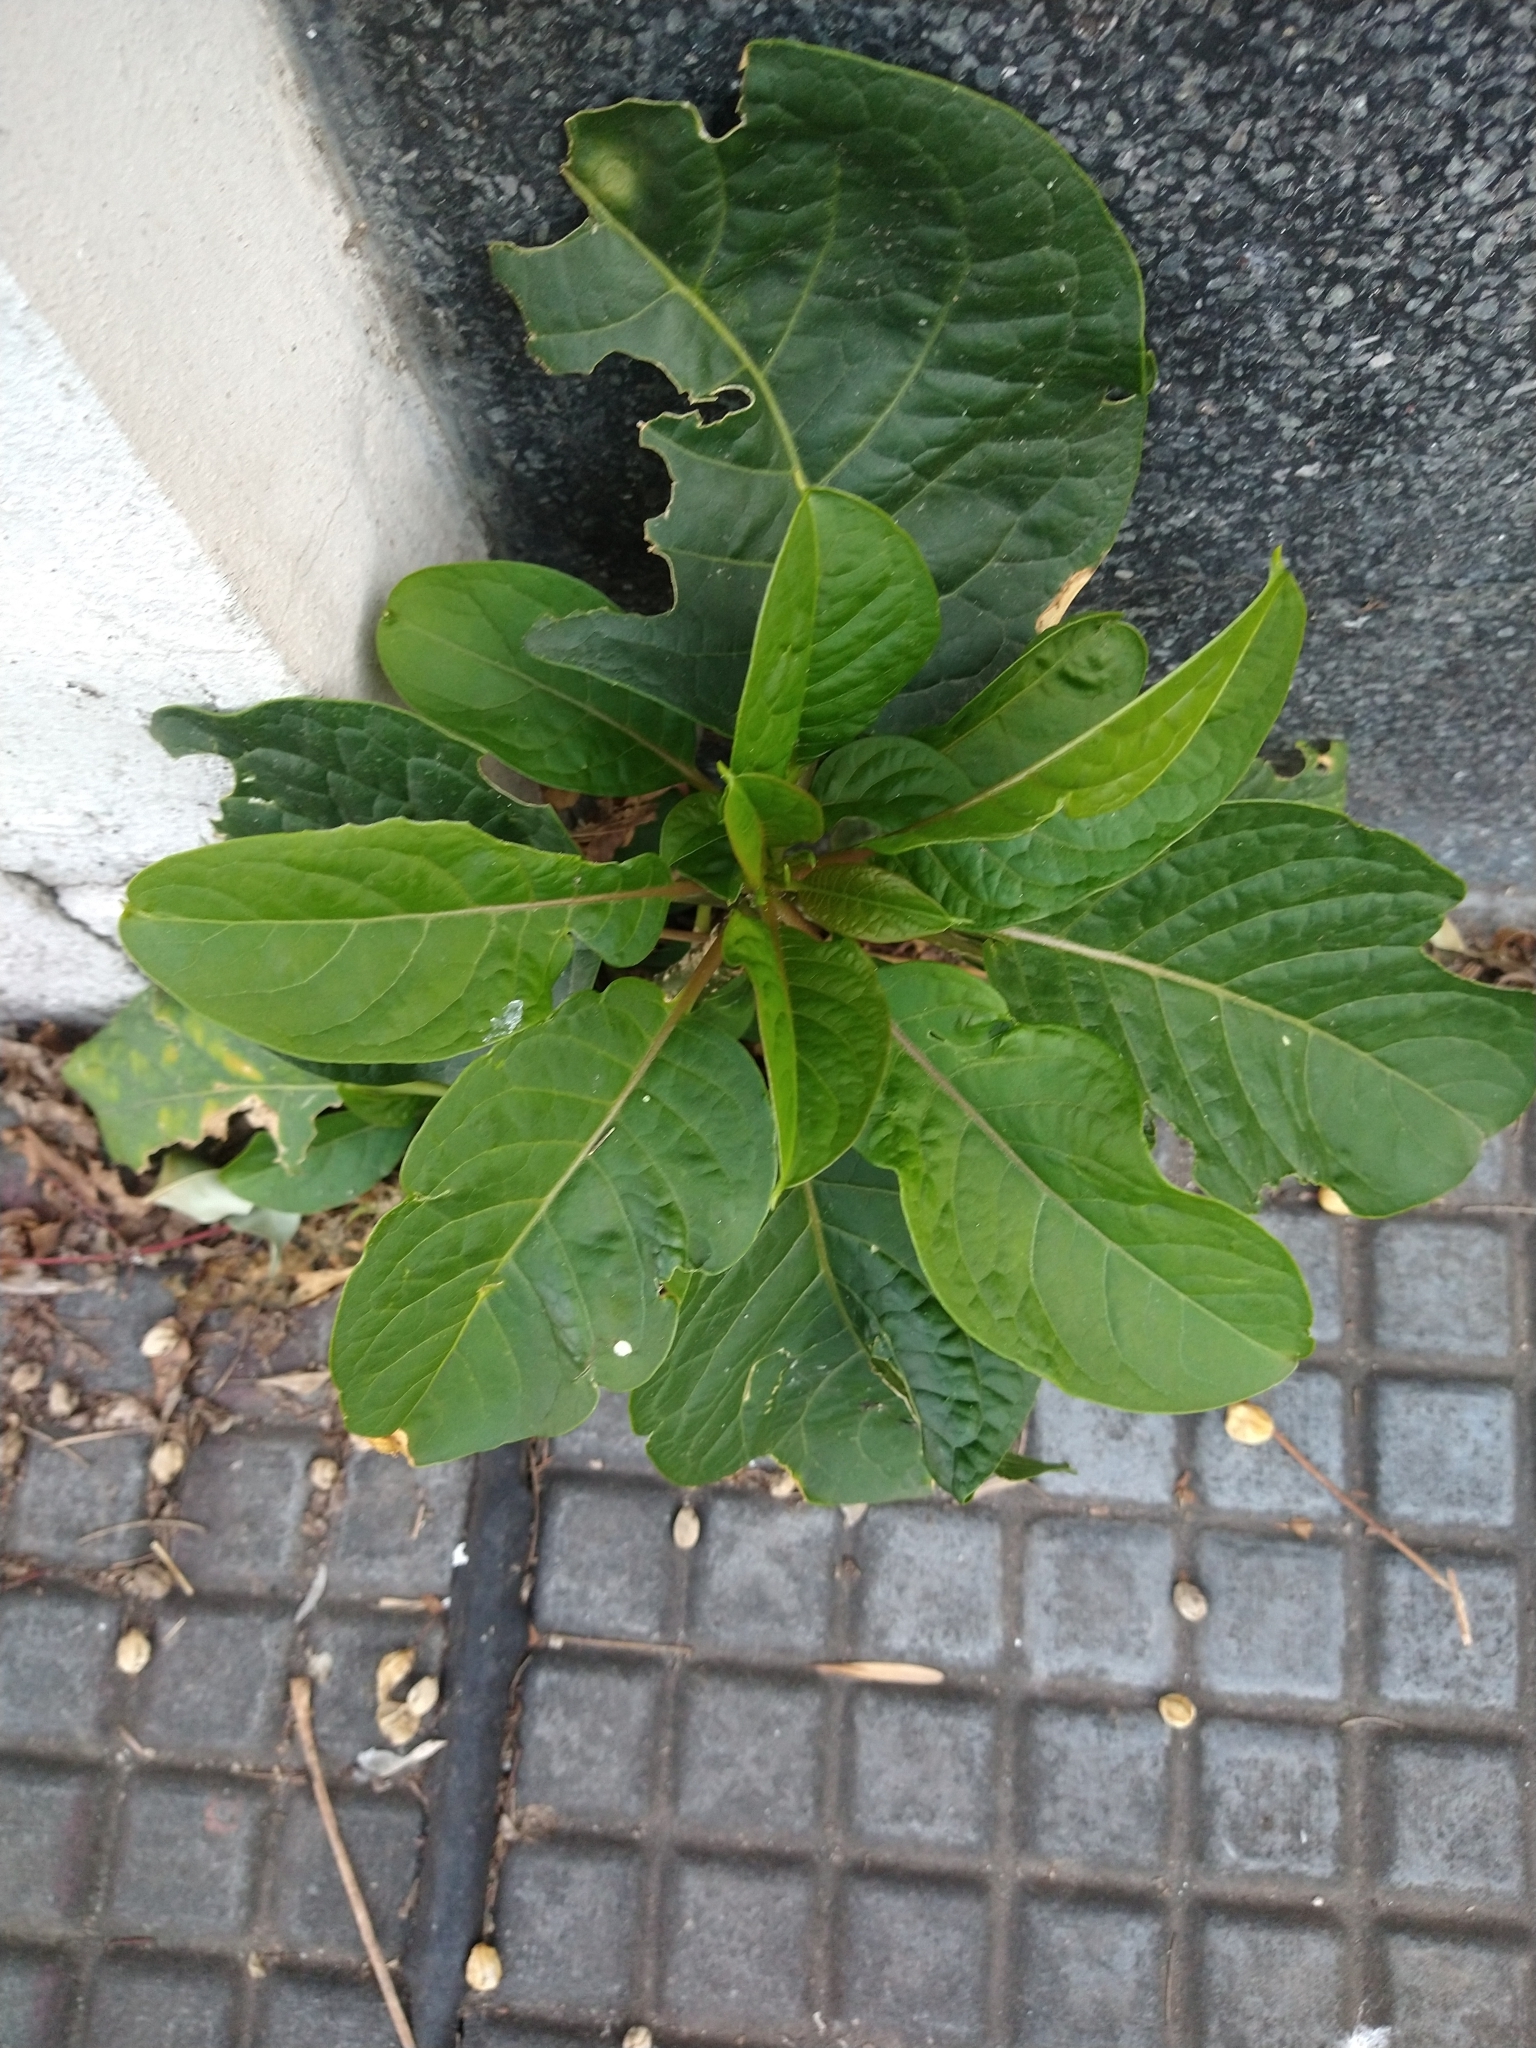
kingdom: Plantae
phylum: Tracheophyta
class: Magnoliopsida
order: Caryophyllales
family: Phytolaccaceae
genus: Phytolacca
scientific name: Phytolacca dioica
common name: Pokeweed
